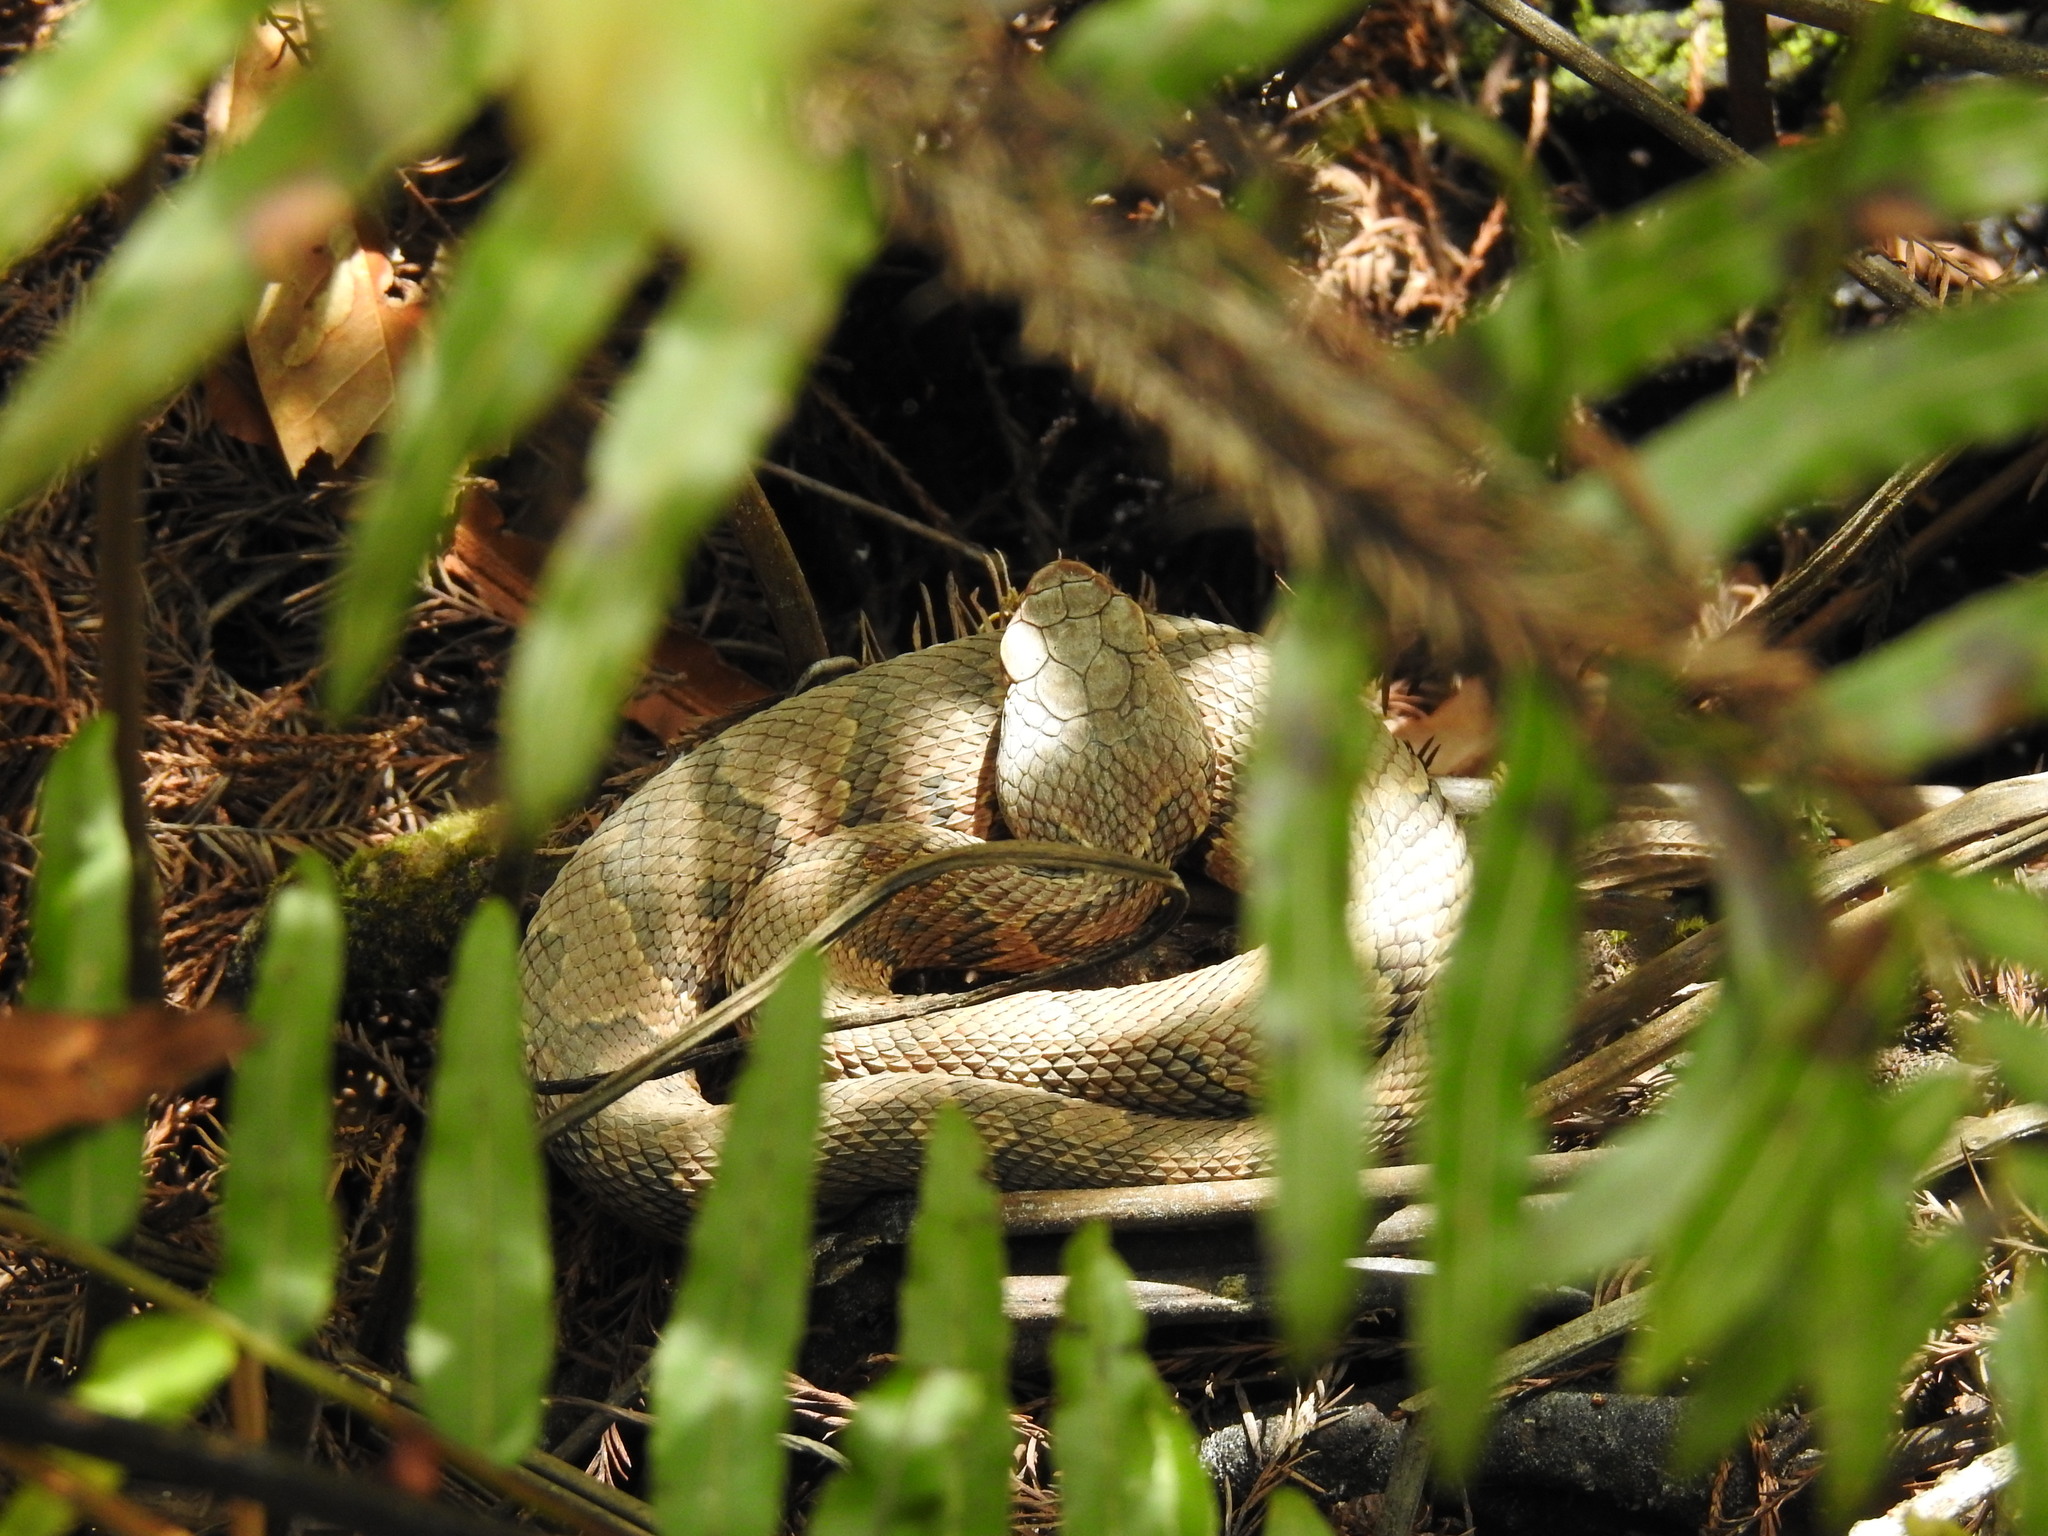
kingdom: Animalia
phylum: Chordata
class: Squamata
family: Viperidae
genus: Agkistrodon
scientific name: Agkistrodon conanti
